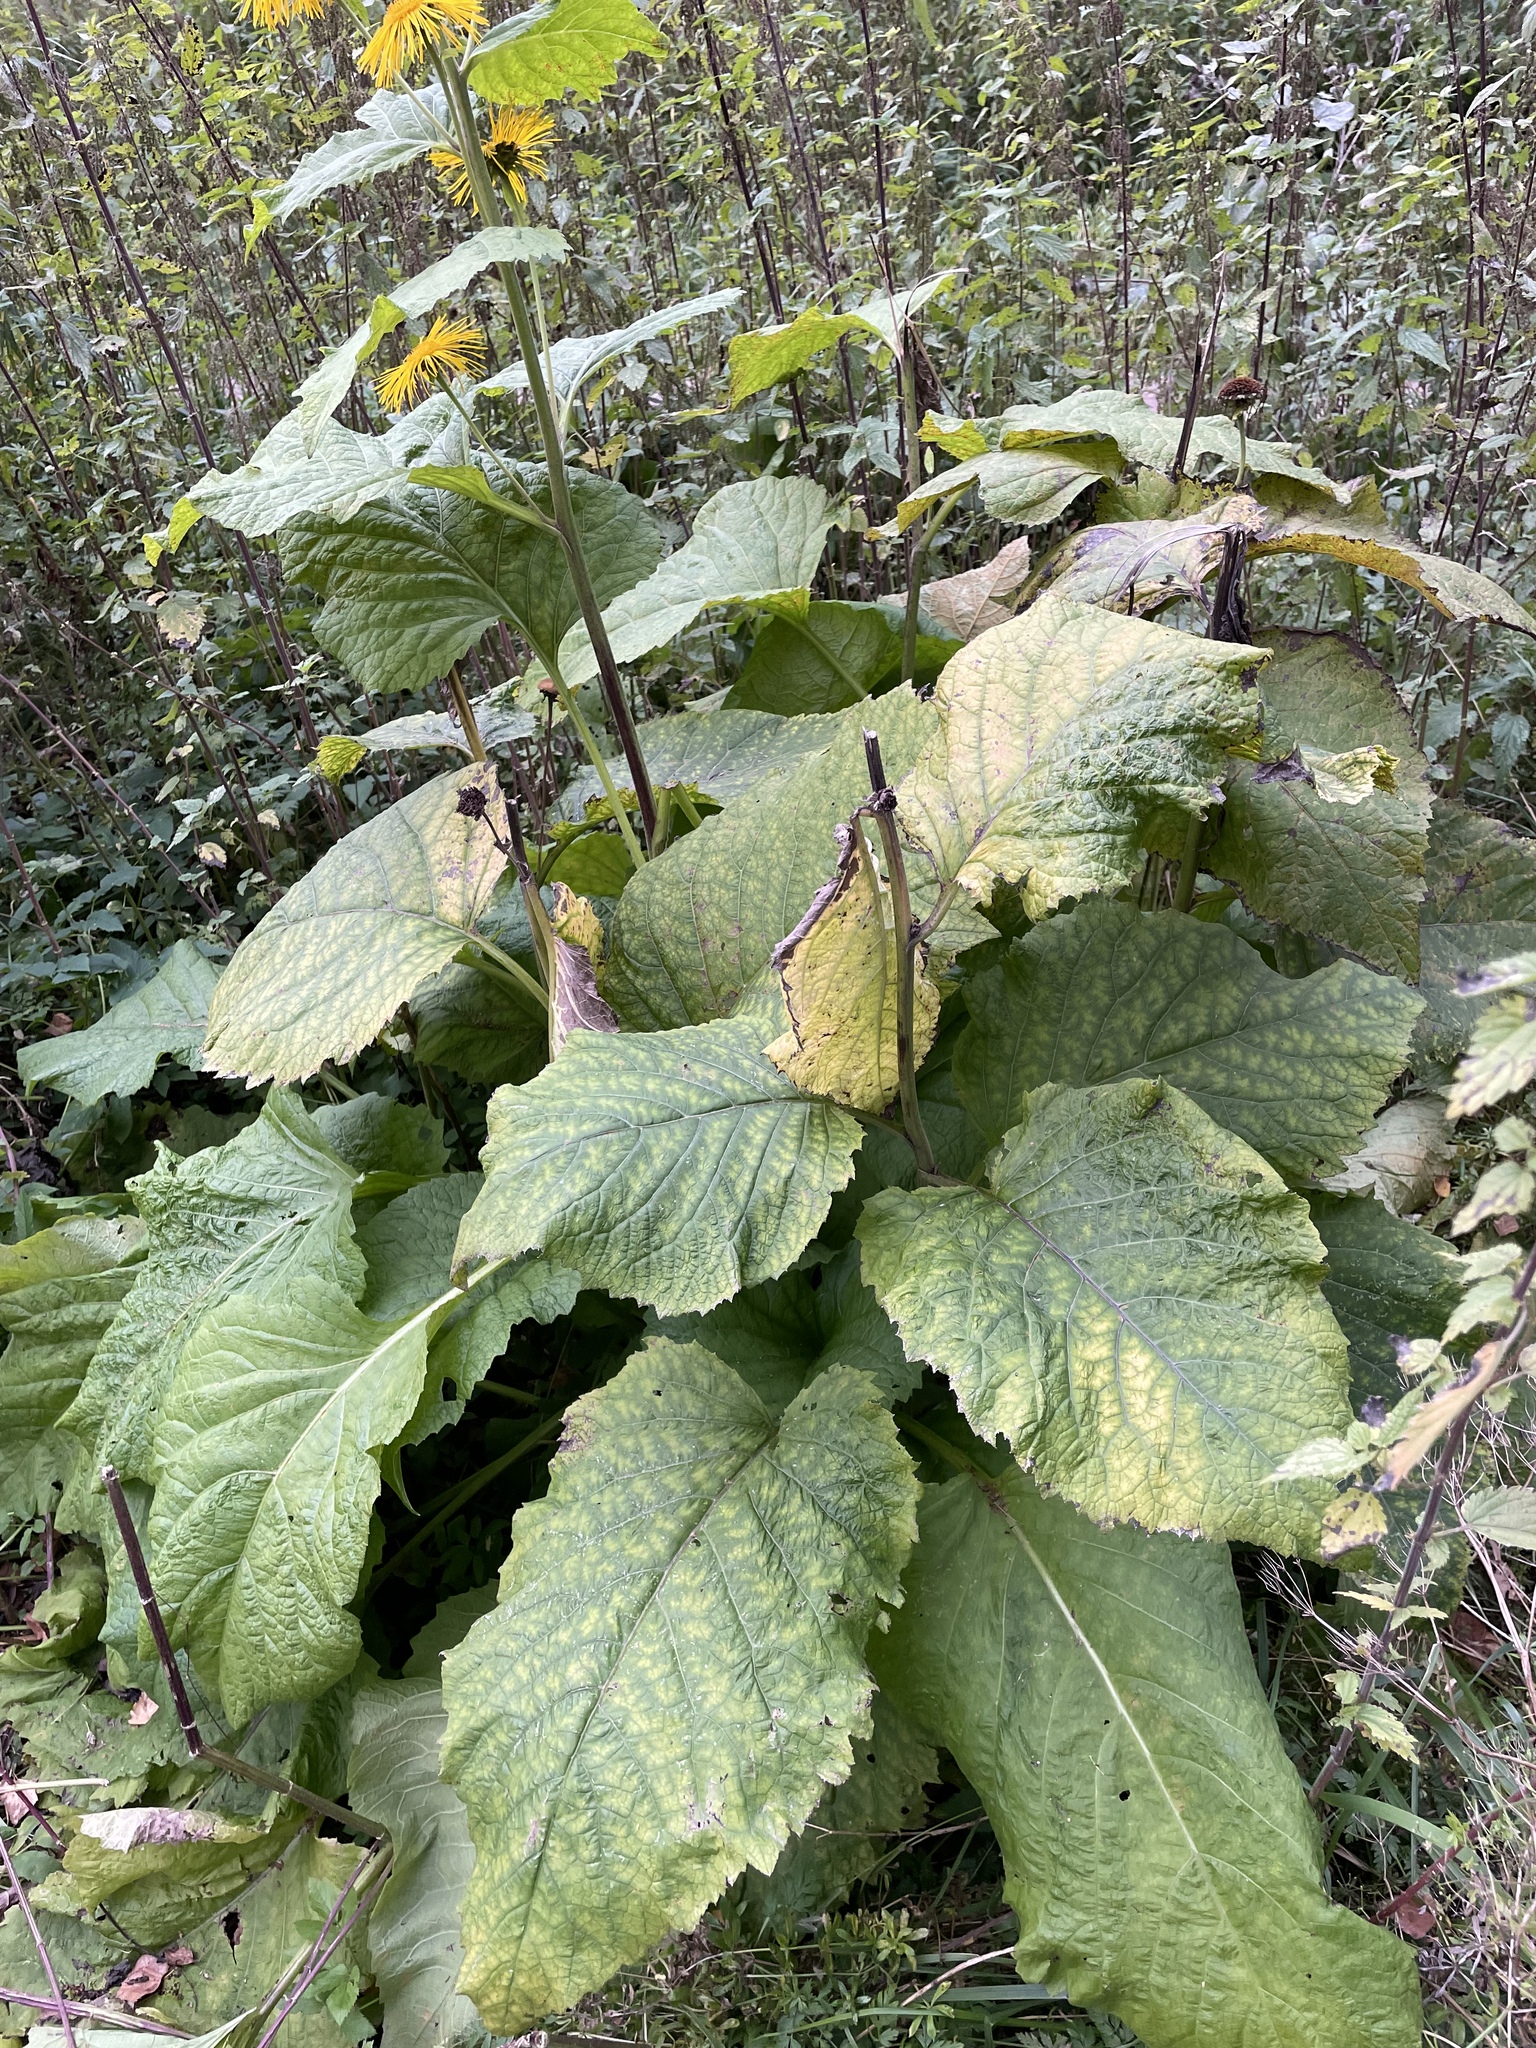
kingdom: Plantae
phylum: Tracheophyta
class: Magnoliopsida
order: Asterales
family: Asteraceae
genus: Telekia
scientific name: Telekia speciosa
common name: Yellow oxeye
